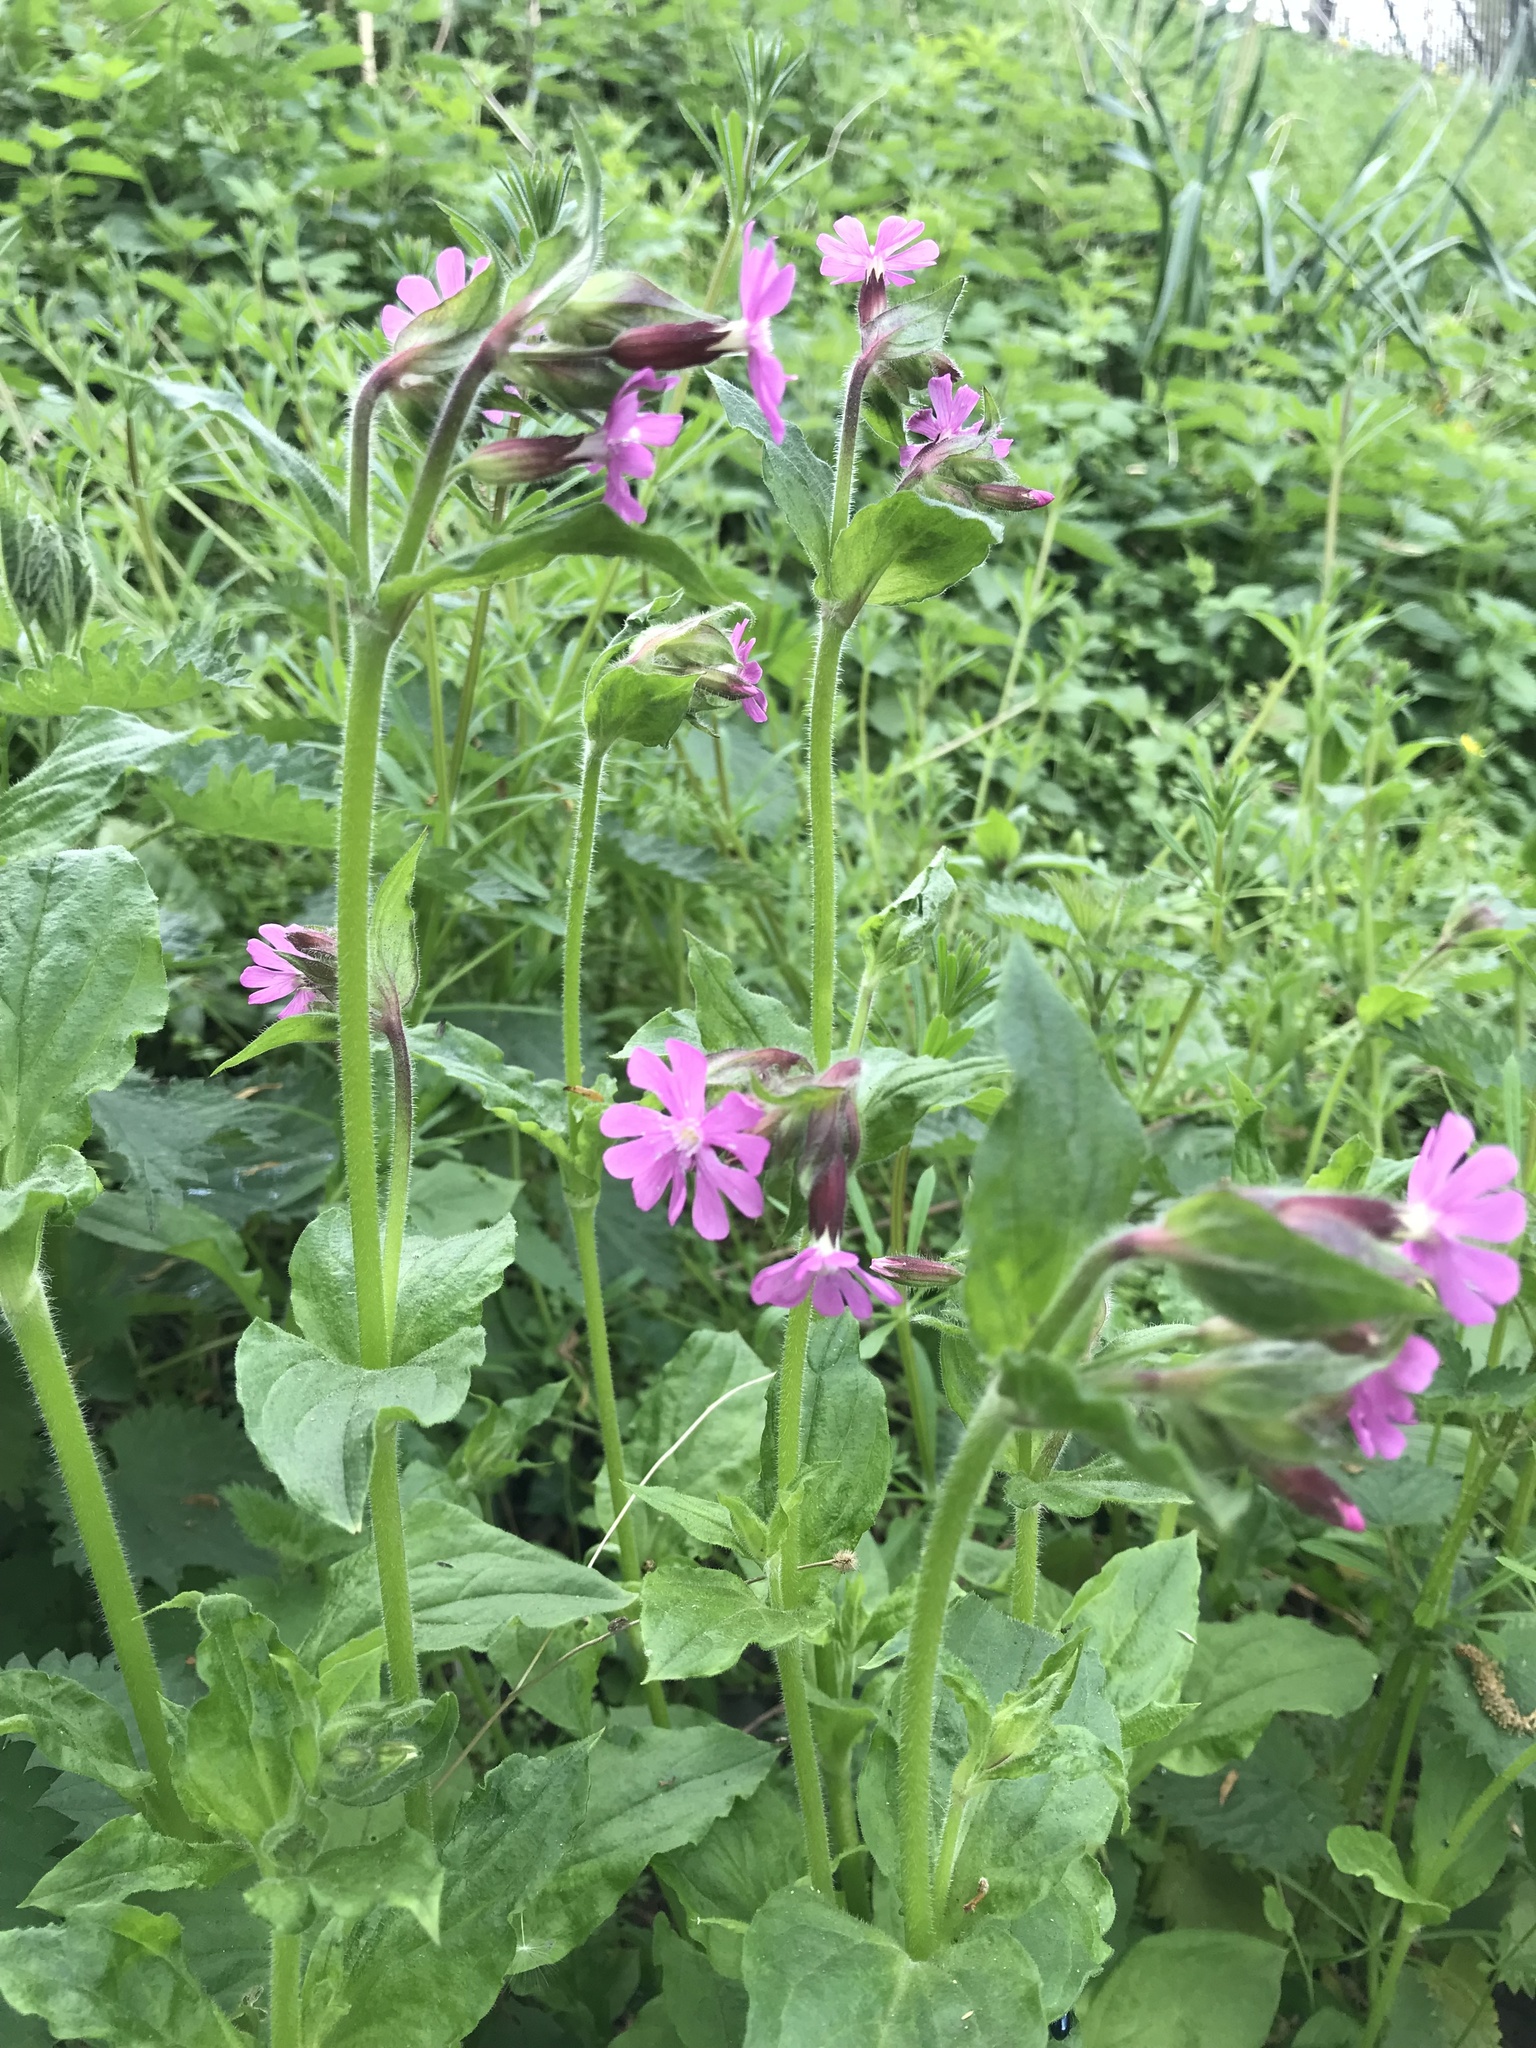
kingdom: Plantae
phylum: Tracheophyta
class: Magnoliopsida
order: Caryophyllales
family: Caryophyllaceae
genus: Silene
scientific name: Silene dioica
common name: Red campion
